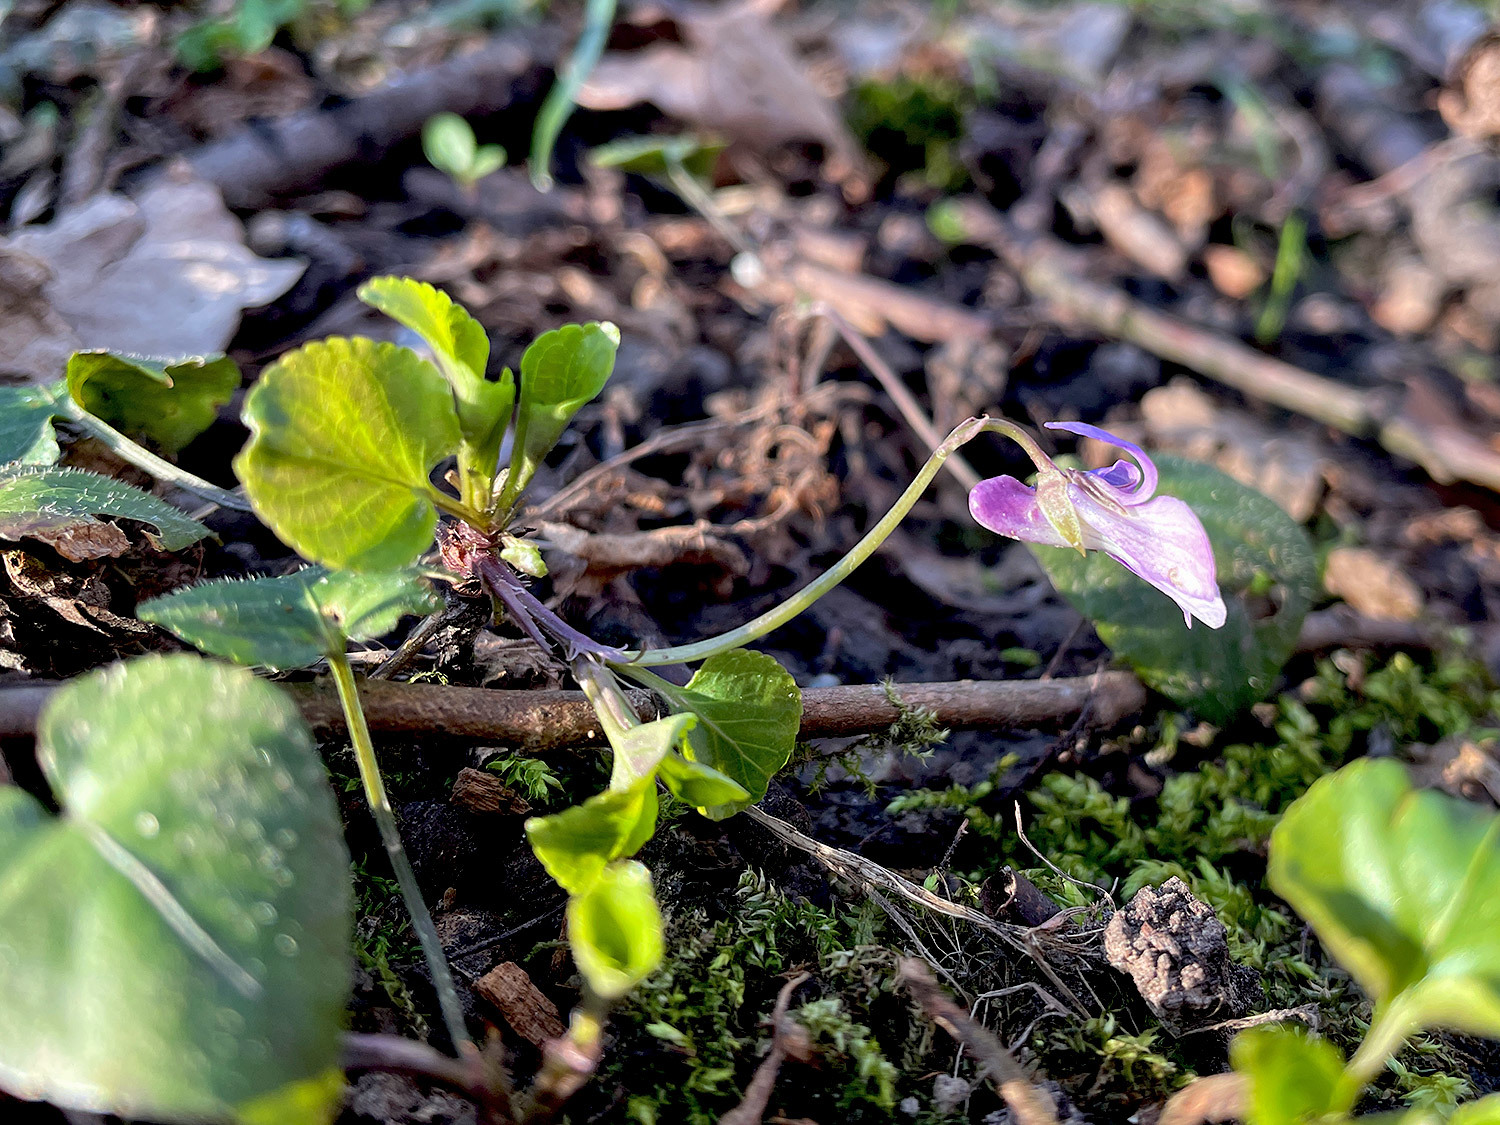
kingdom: Plantae
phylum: Tracheophyta
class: Magnoliopsida
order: Malpighiales
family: Violaceae
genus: Viola
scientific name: Viola reichenbachiana
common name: Early dog-violet
